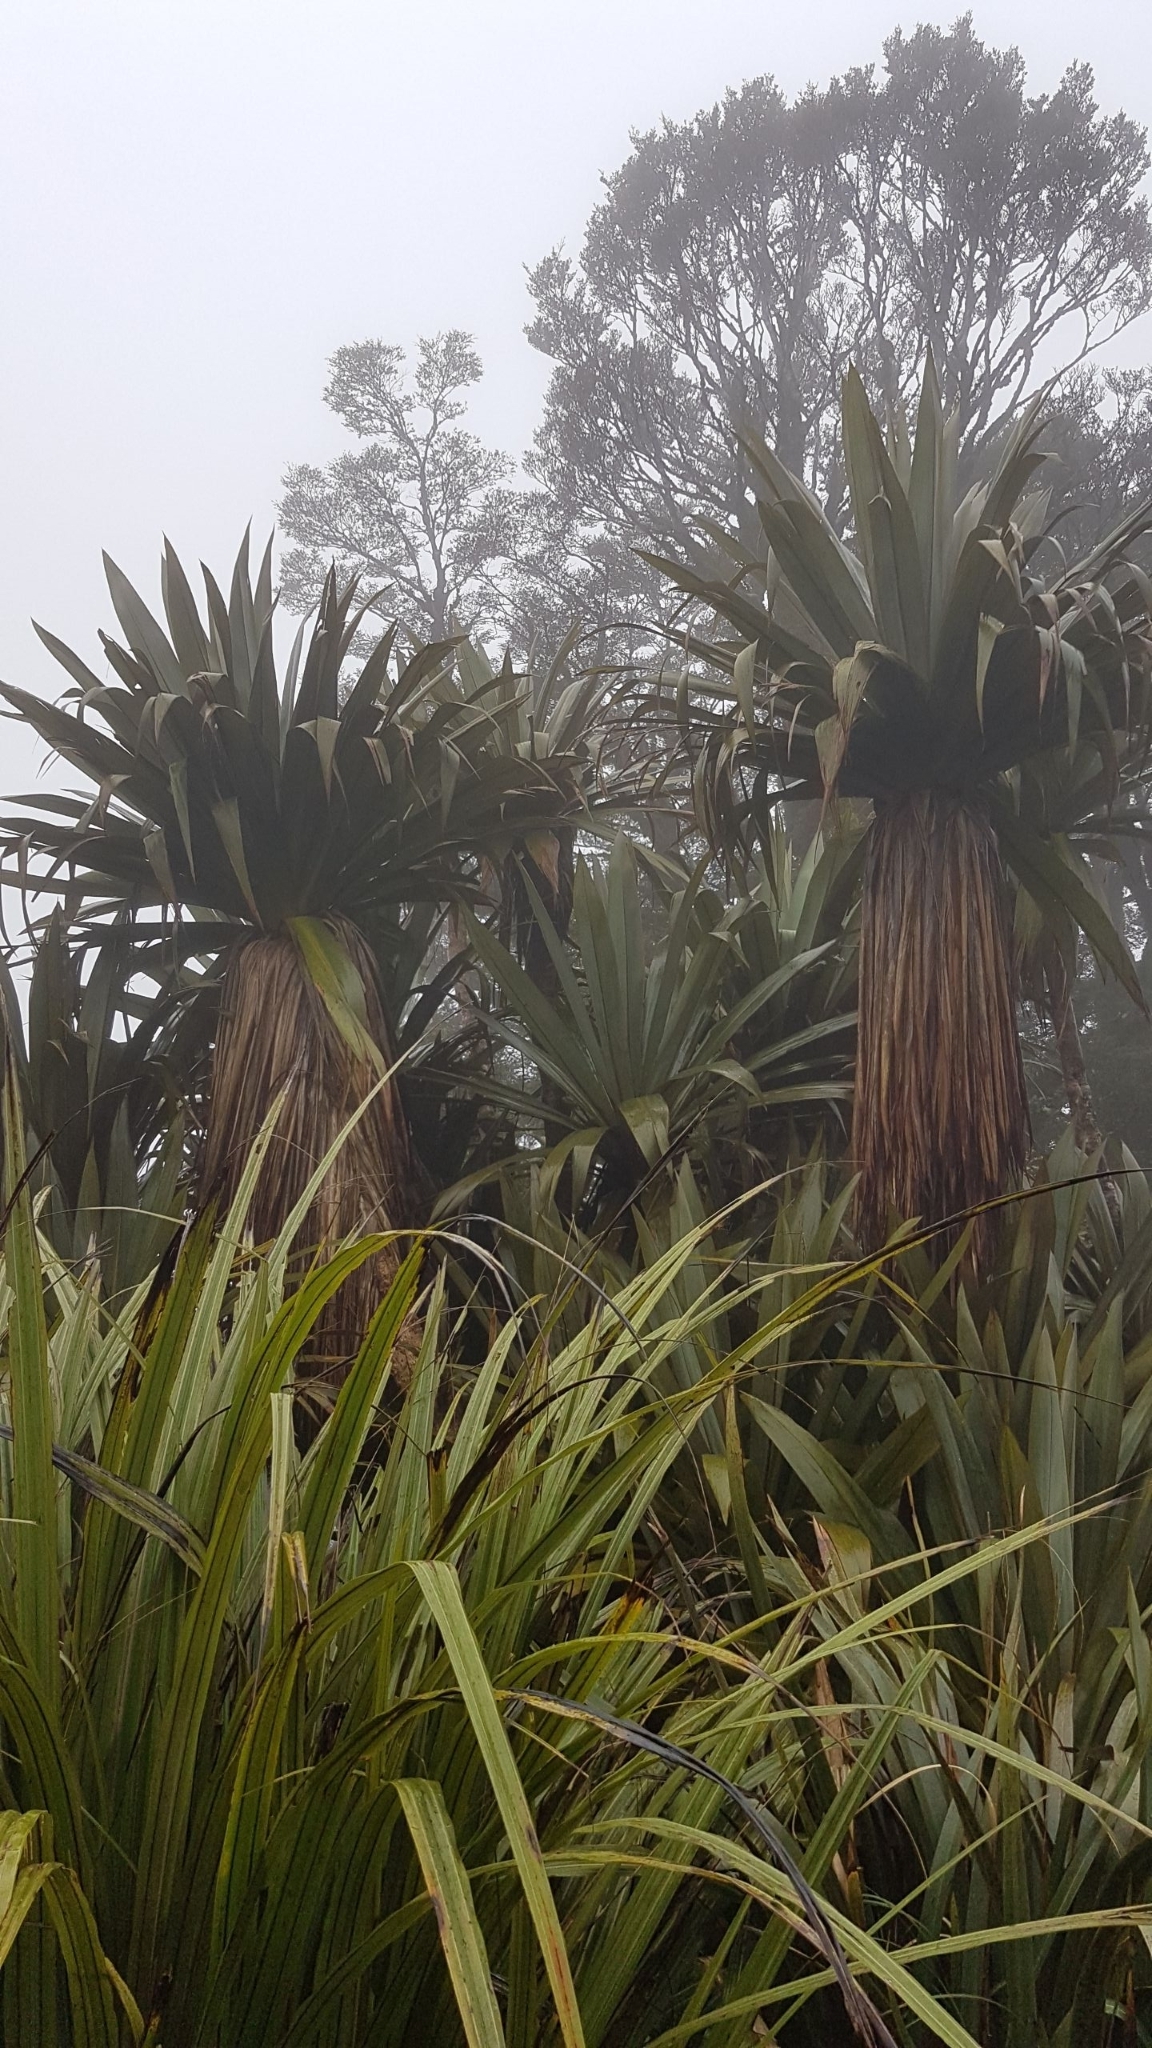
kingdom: Plantae
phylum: Tracheophyta
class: Liliopsida
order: Asparagales
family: Asparagaceae
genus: Cordyline
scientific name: Cordyline indivisa
